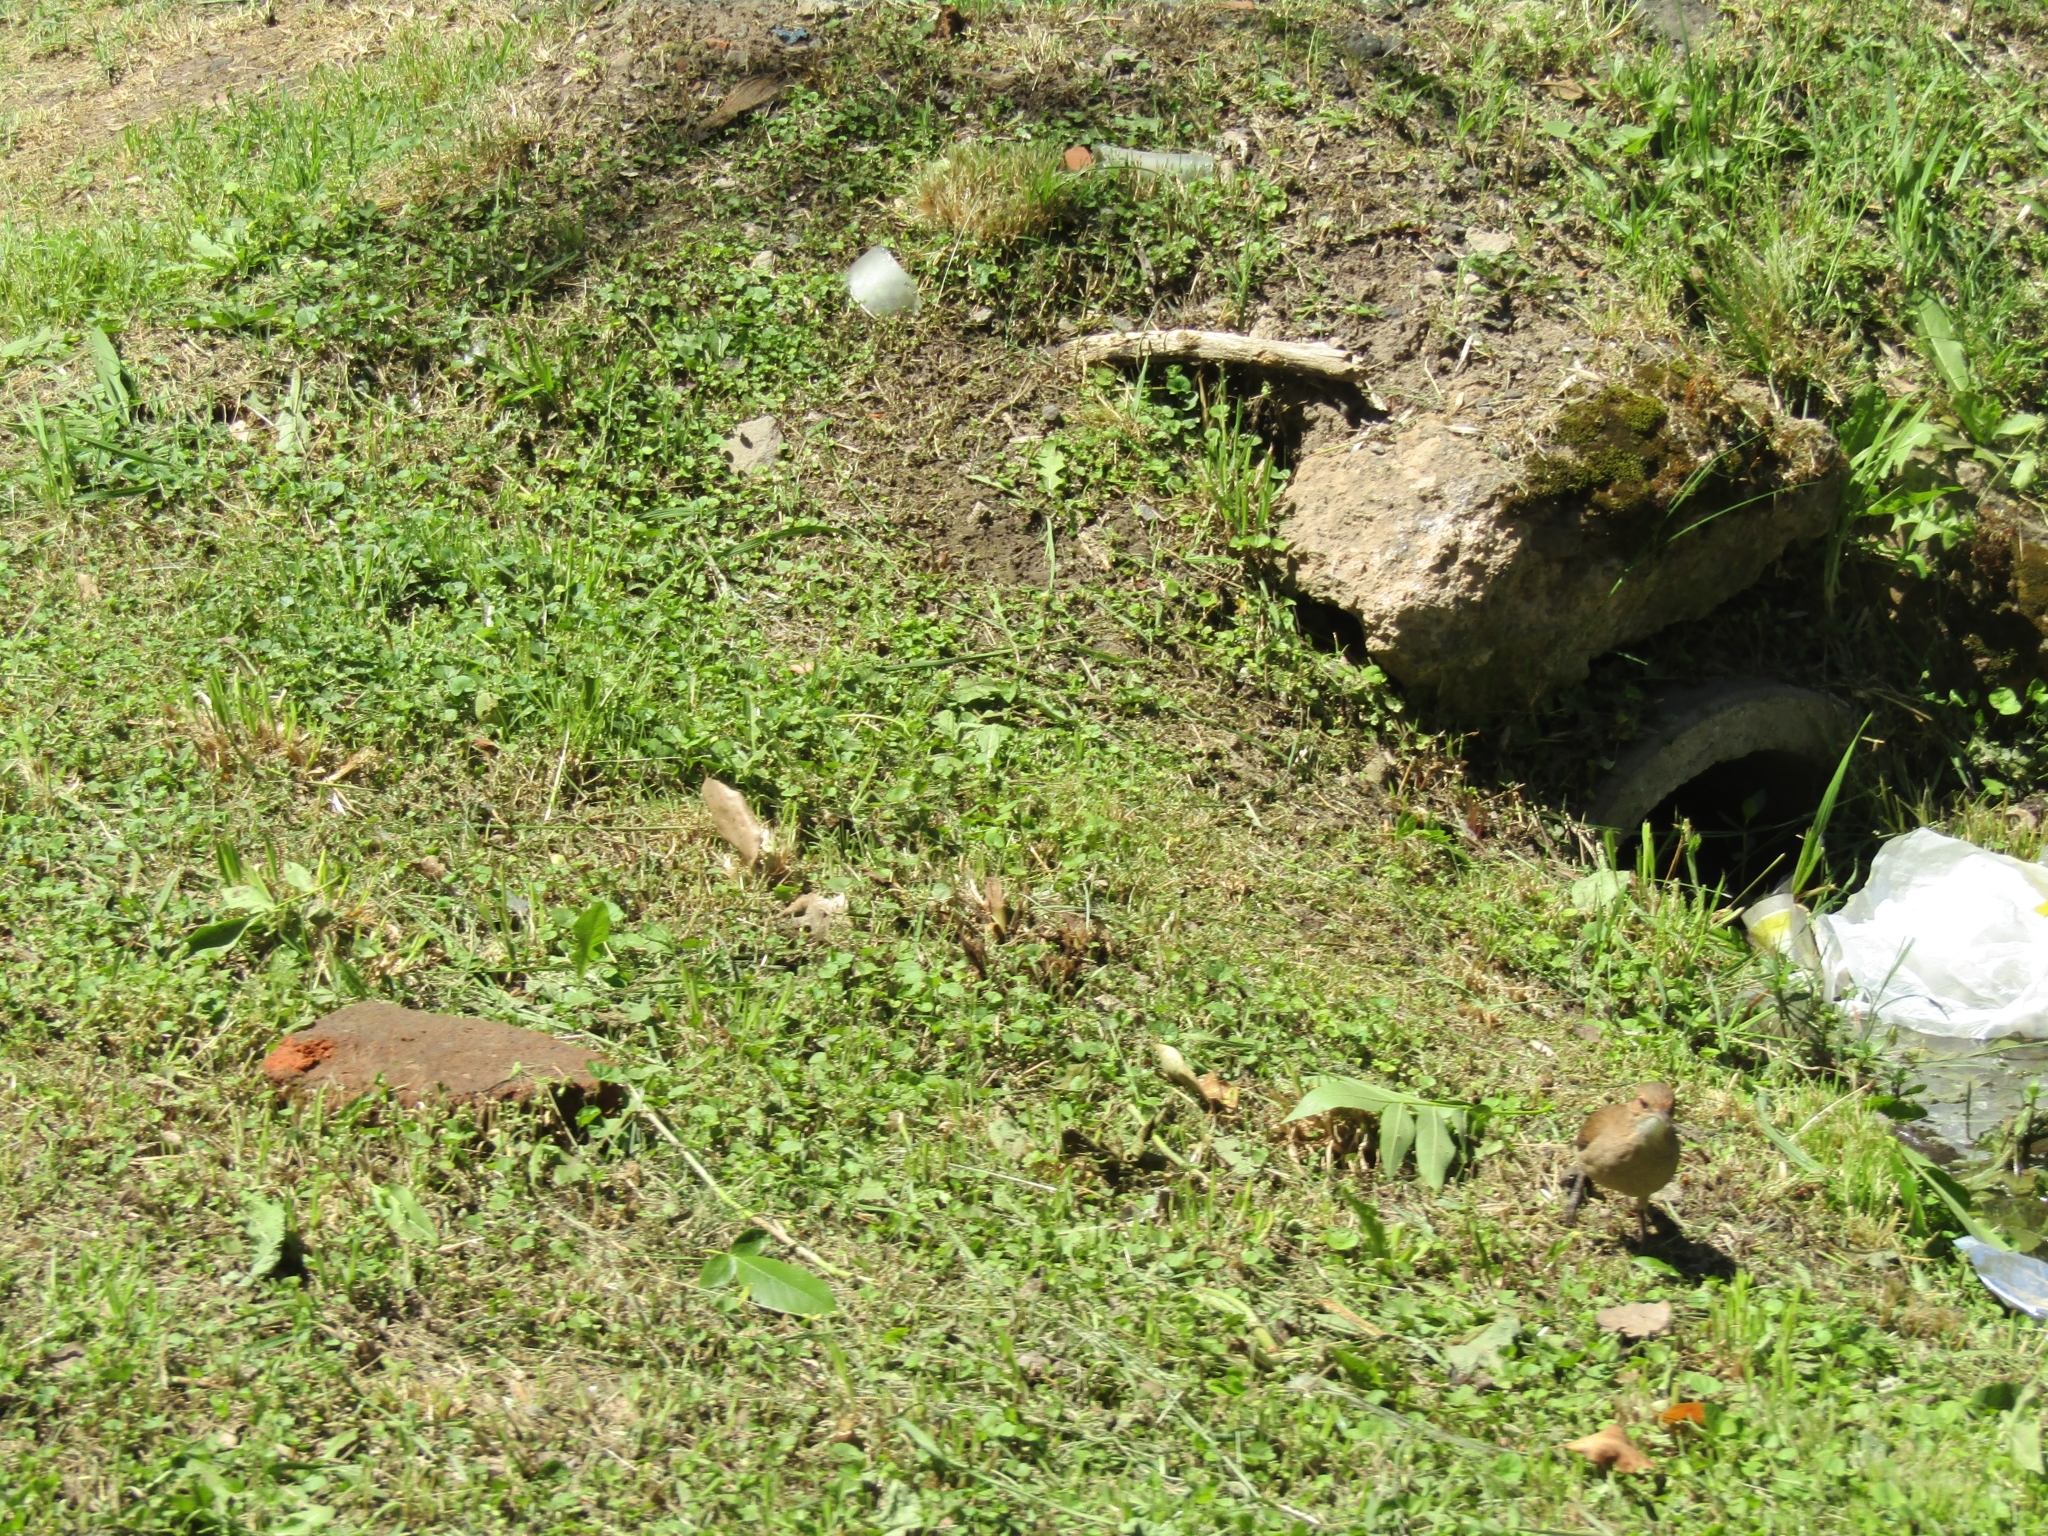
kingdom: Animalia
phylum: Chordata
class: Aves
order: Passeriformes
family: Furnariidae
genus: Furnarius
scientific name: Furnarius rufus
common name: Rufous hornero
